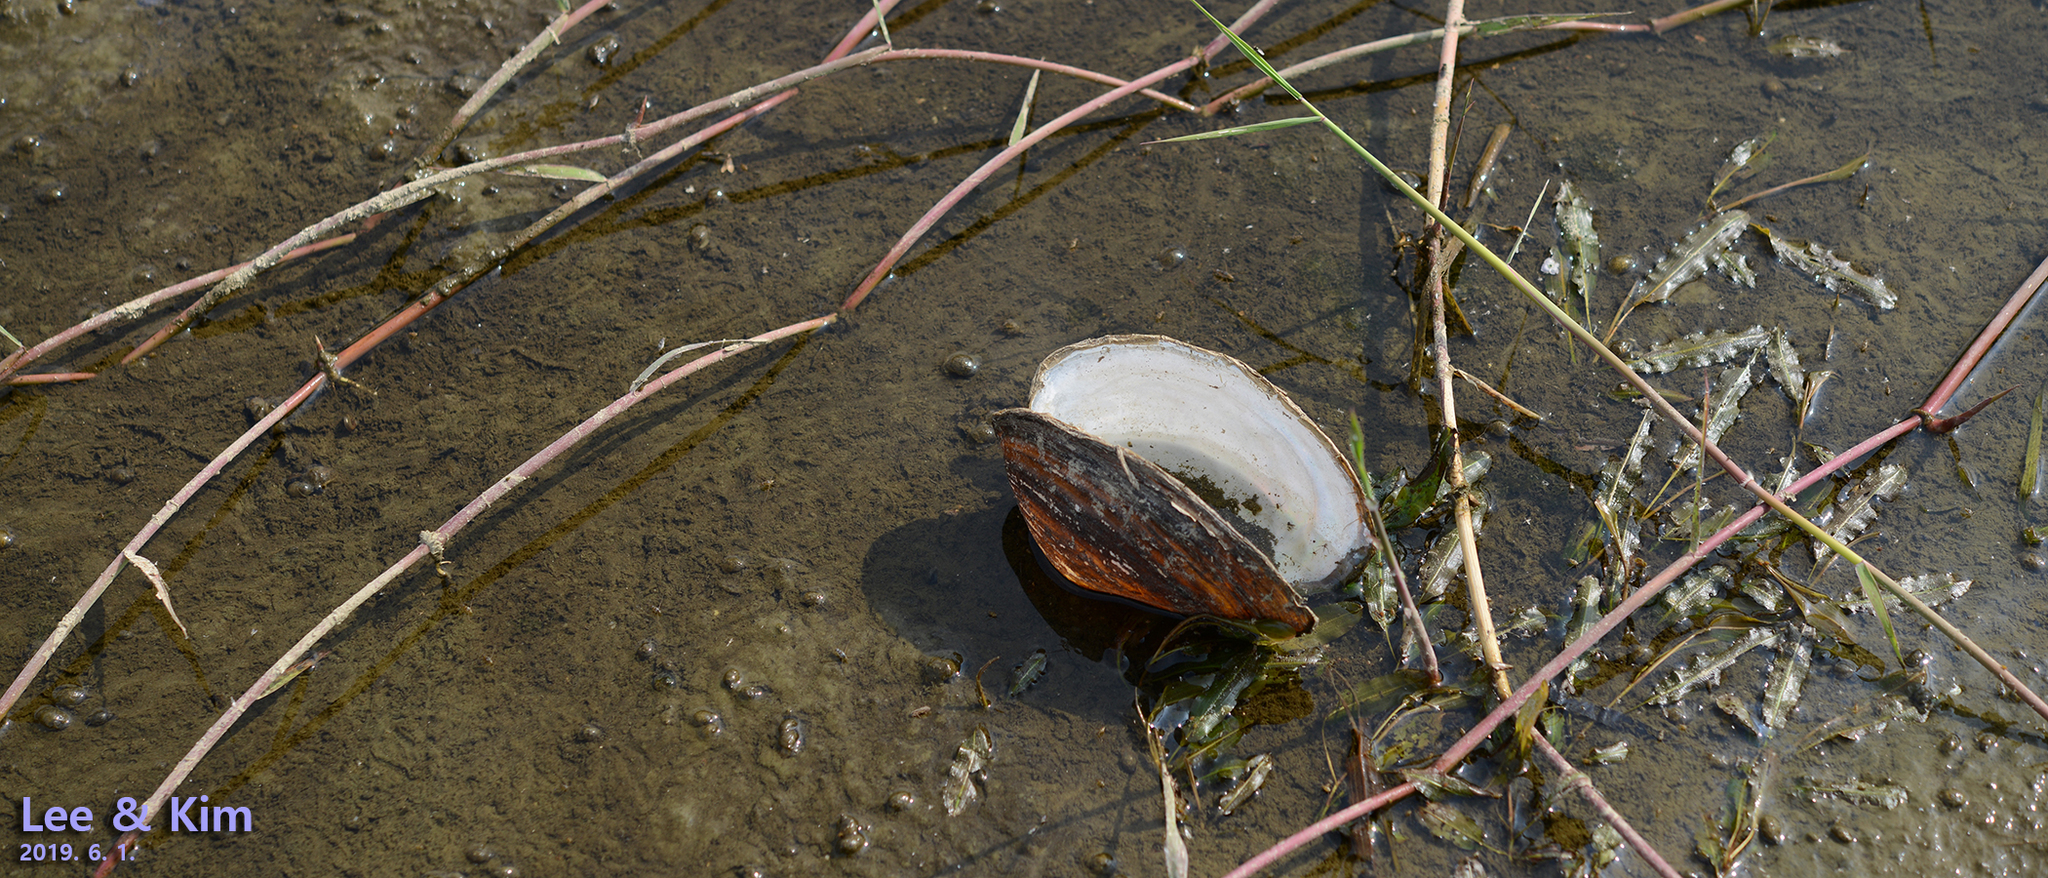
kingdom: Animalia
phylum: Mollusca
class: Bivalvia
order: Unionida
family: Unionidae
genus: Sinanodonta
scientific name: Sinanodonta lauta
